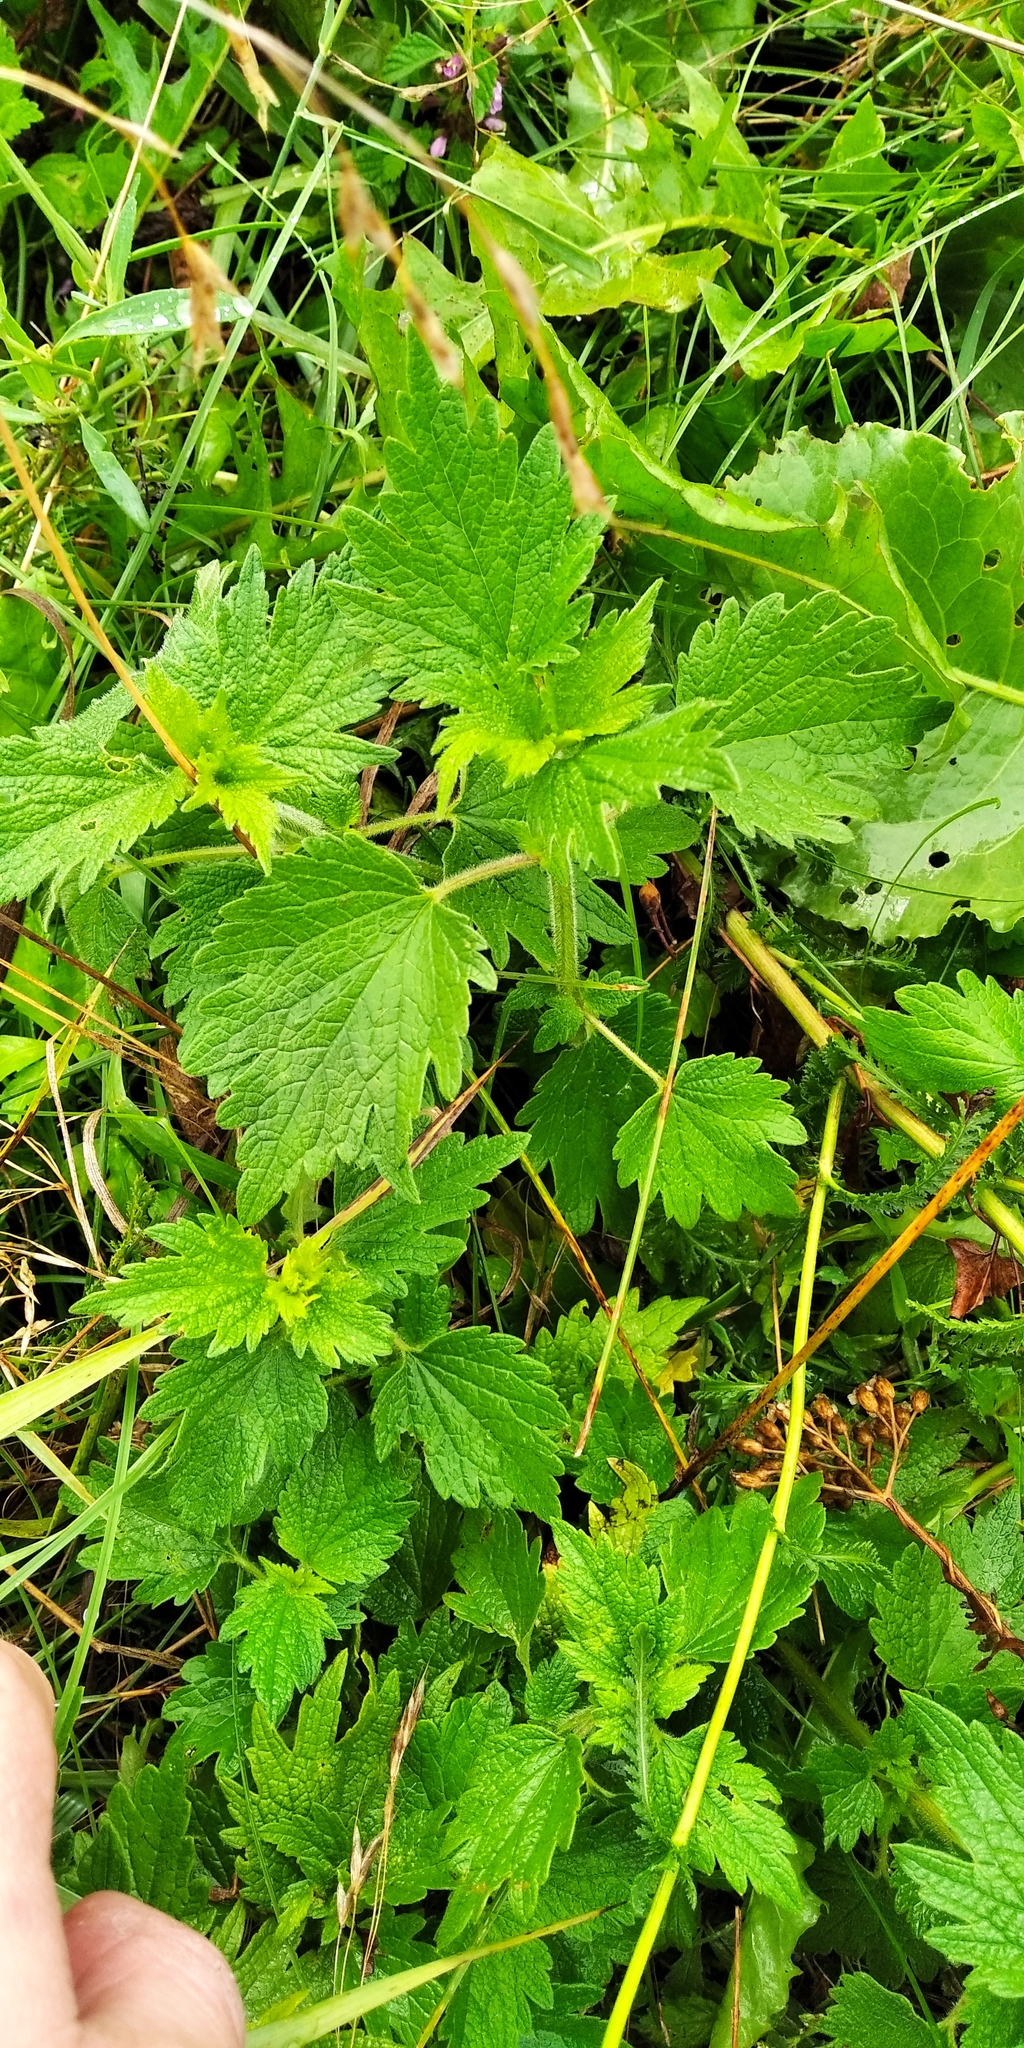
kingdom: Plantae
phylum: Tracheophyta
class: Magnoliopsida
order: Lamiales
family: Lamiaceae
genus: Leonurus
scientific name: Leonurus quinquelobatus
